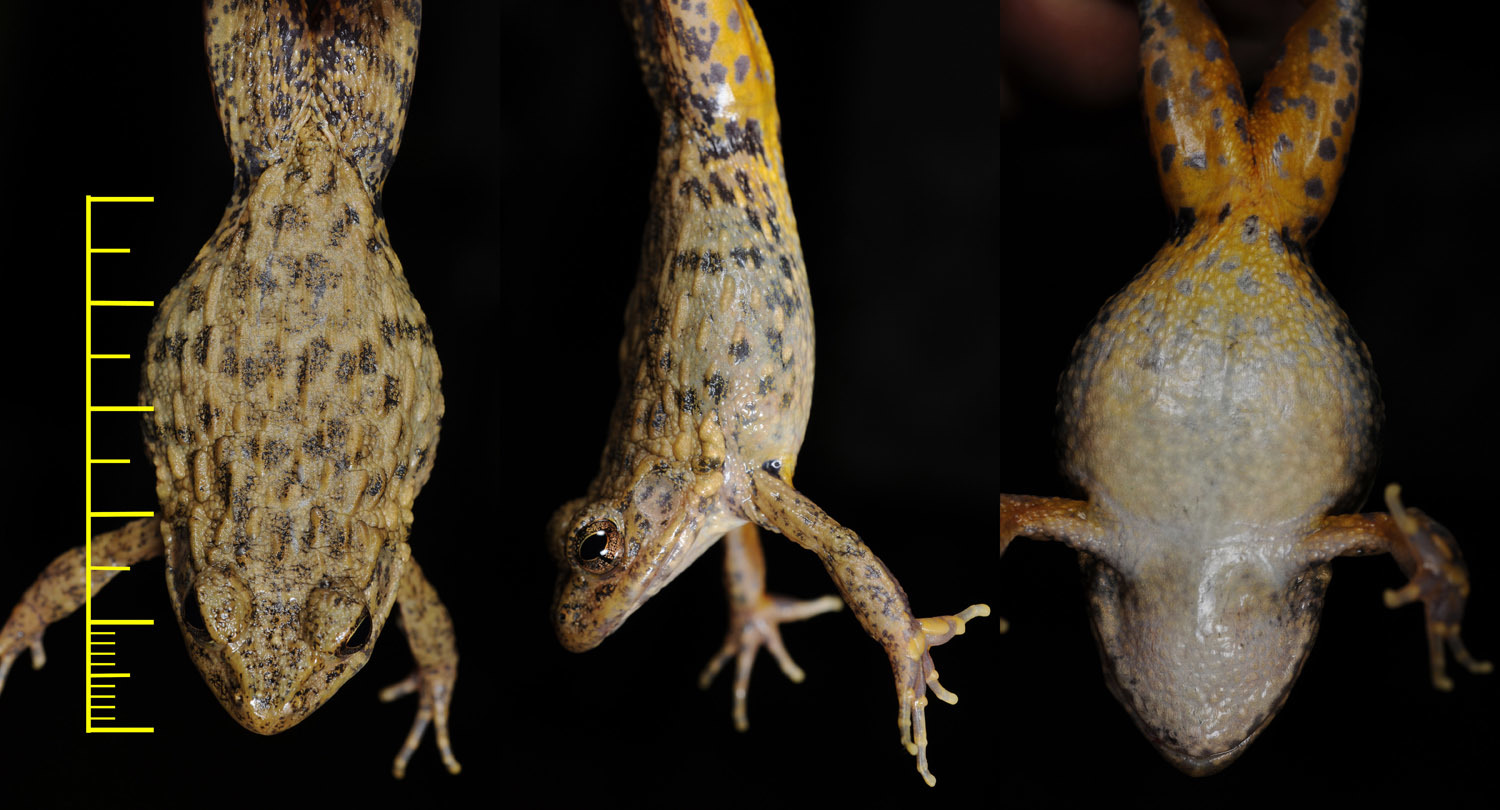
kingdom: Animalia
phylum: Chordata
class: Amphibia
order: Anura
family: Ranidae
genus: Glandirana
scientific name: Glandirana emeljanovi
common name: Northeast china rough-skinned frog
